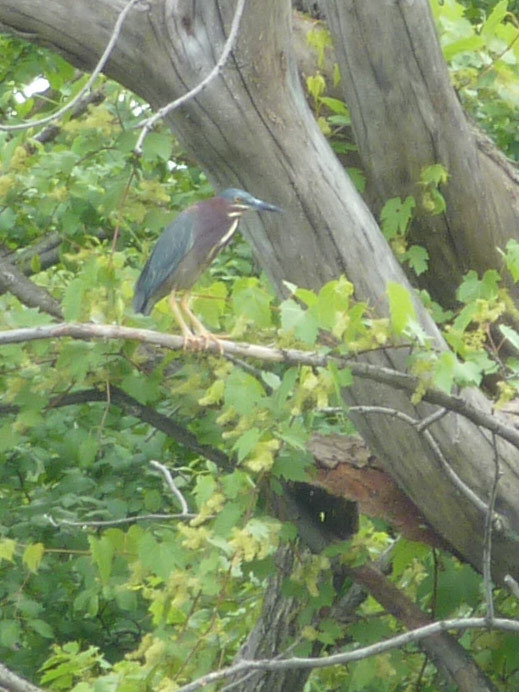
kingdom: Animalia
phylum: Chordata
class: Aves
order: Pelecaniformes
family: Ardeidae
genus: Butorides
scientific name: Butorides virescens
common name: Green heron
